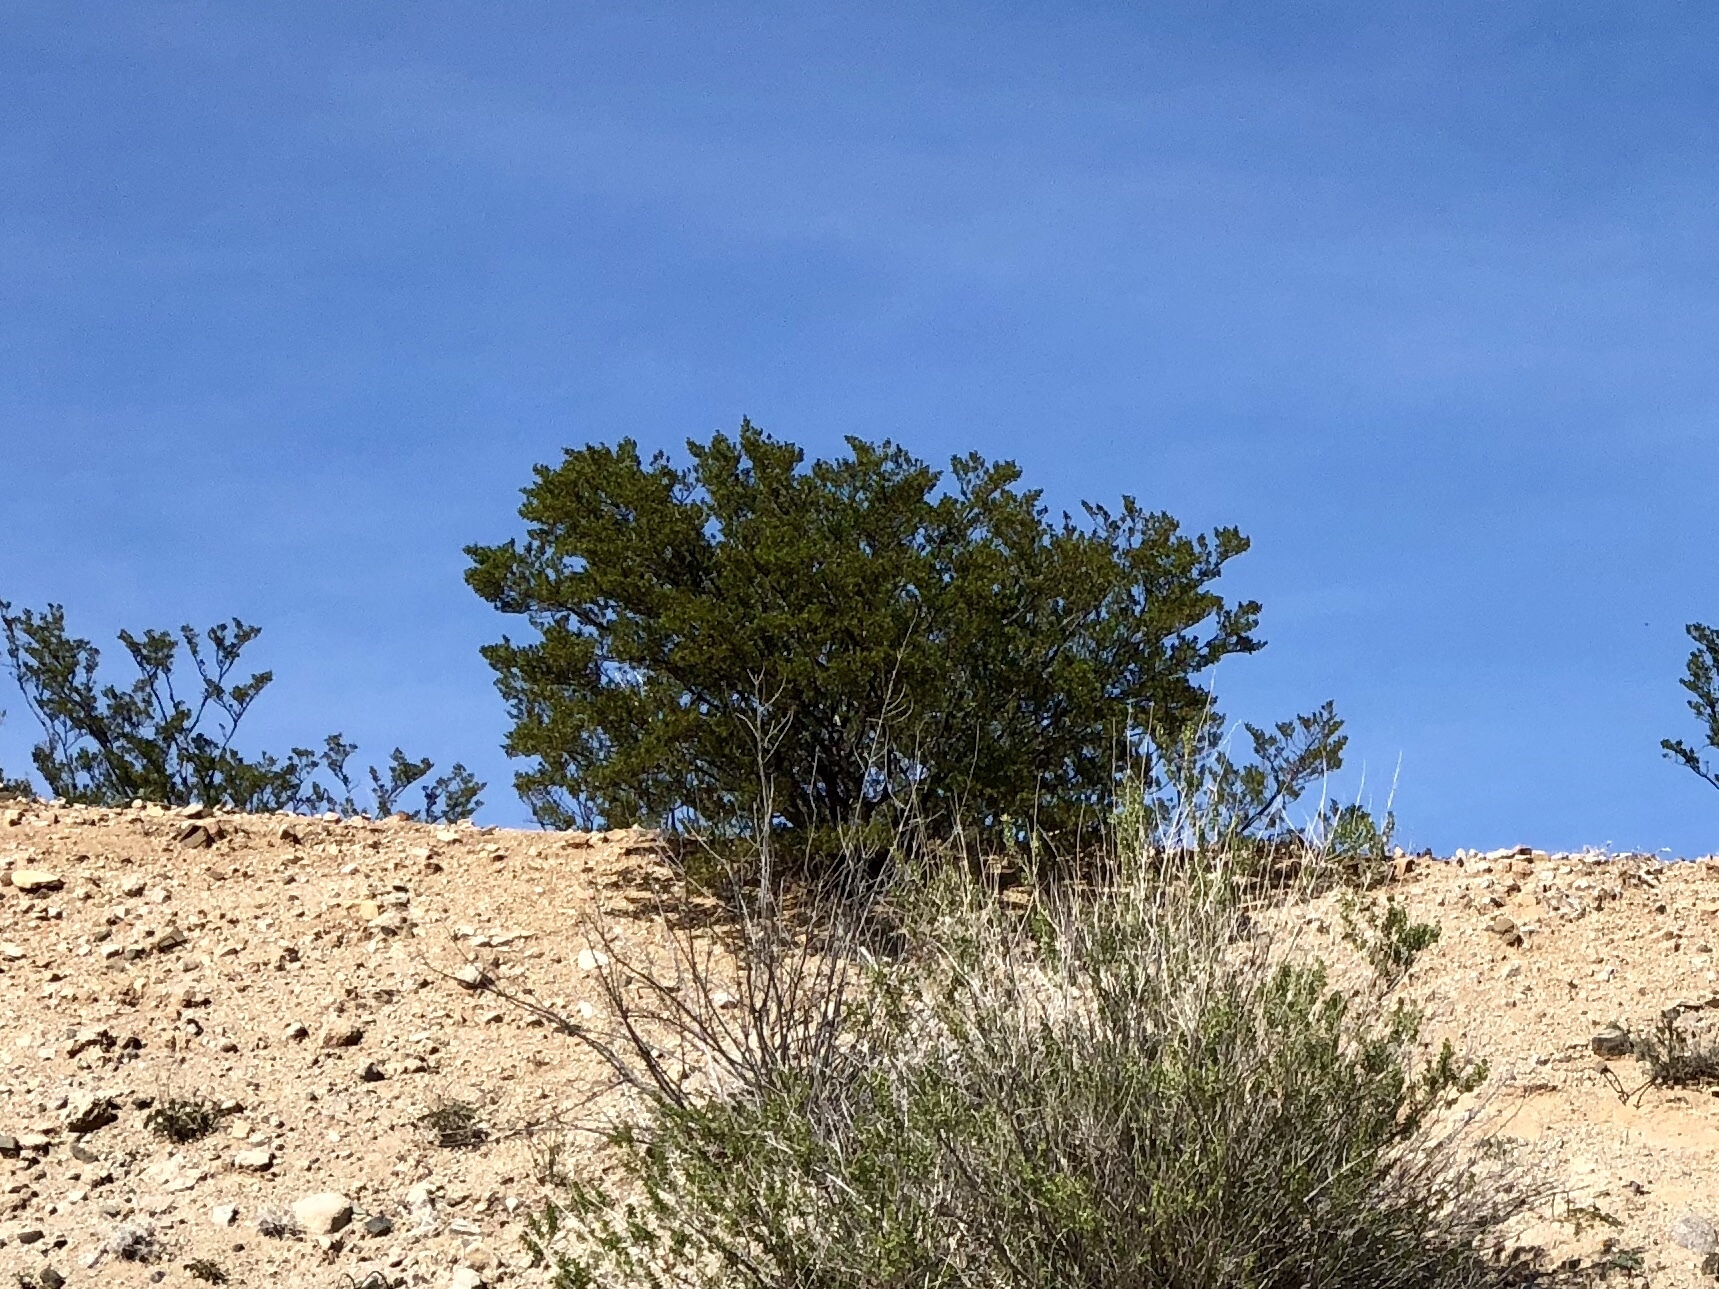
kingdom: Plantae
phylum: Tracheophyta
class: Magnoliopsida
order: Zygophyllales
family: Zygophyllaceae
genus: Larrea
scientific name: Larrea tridentata
